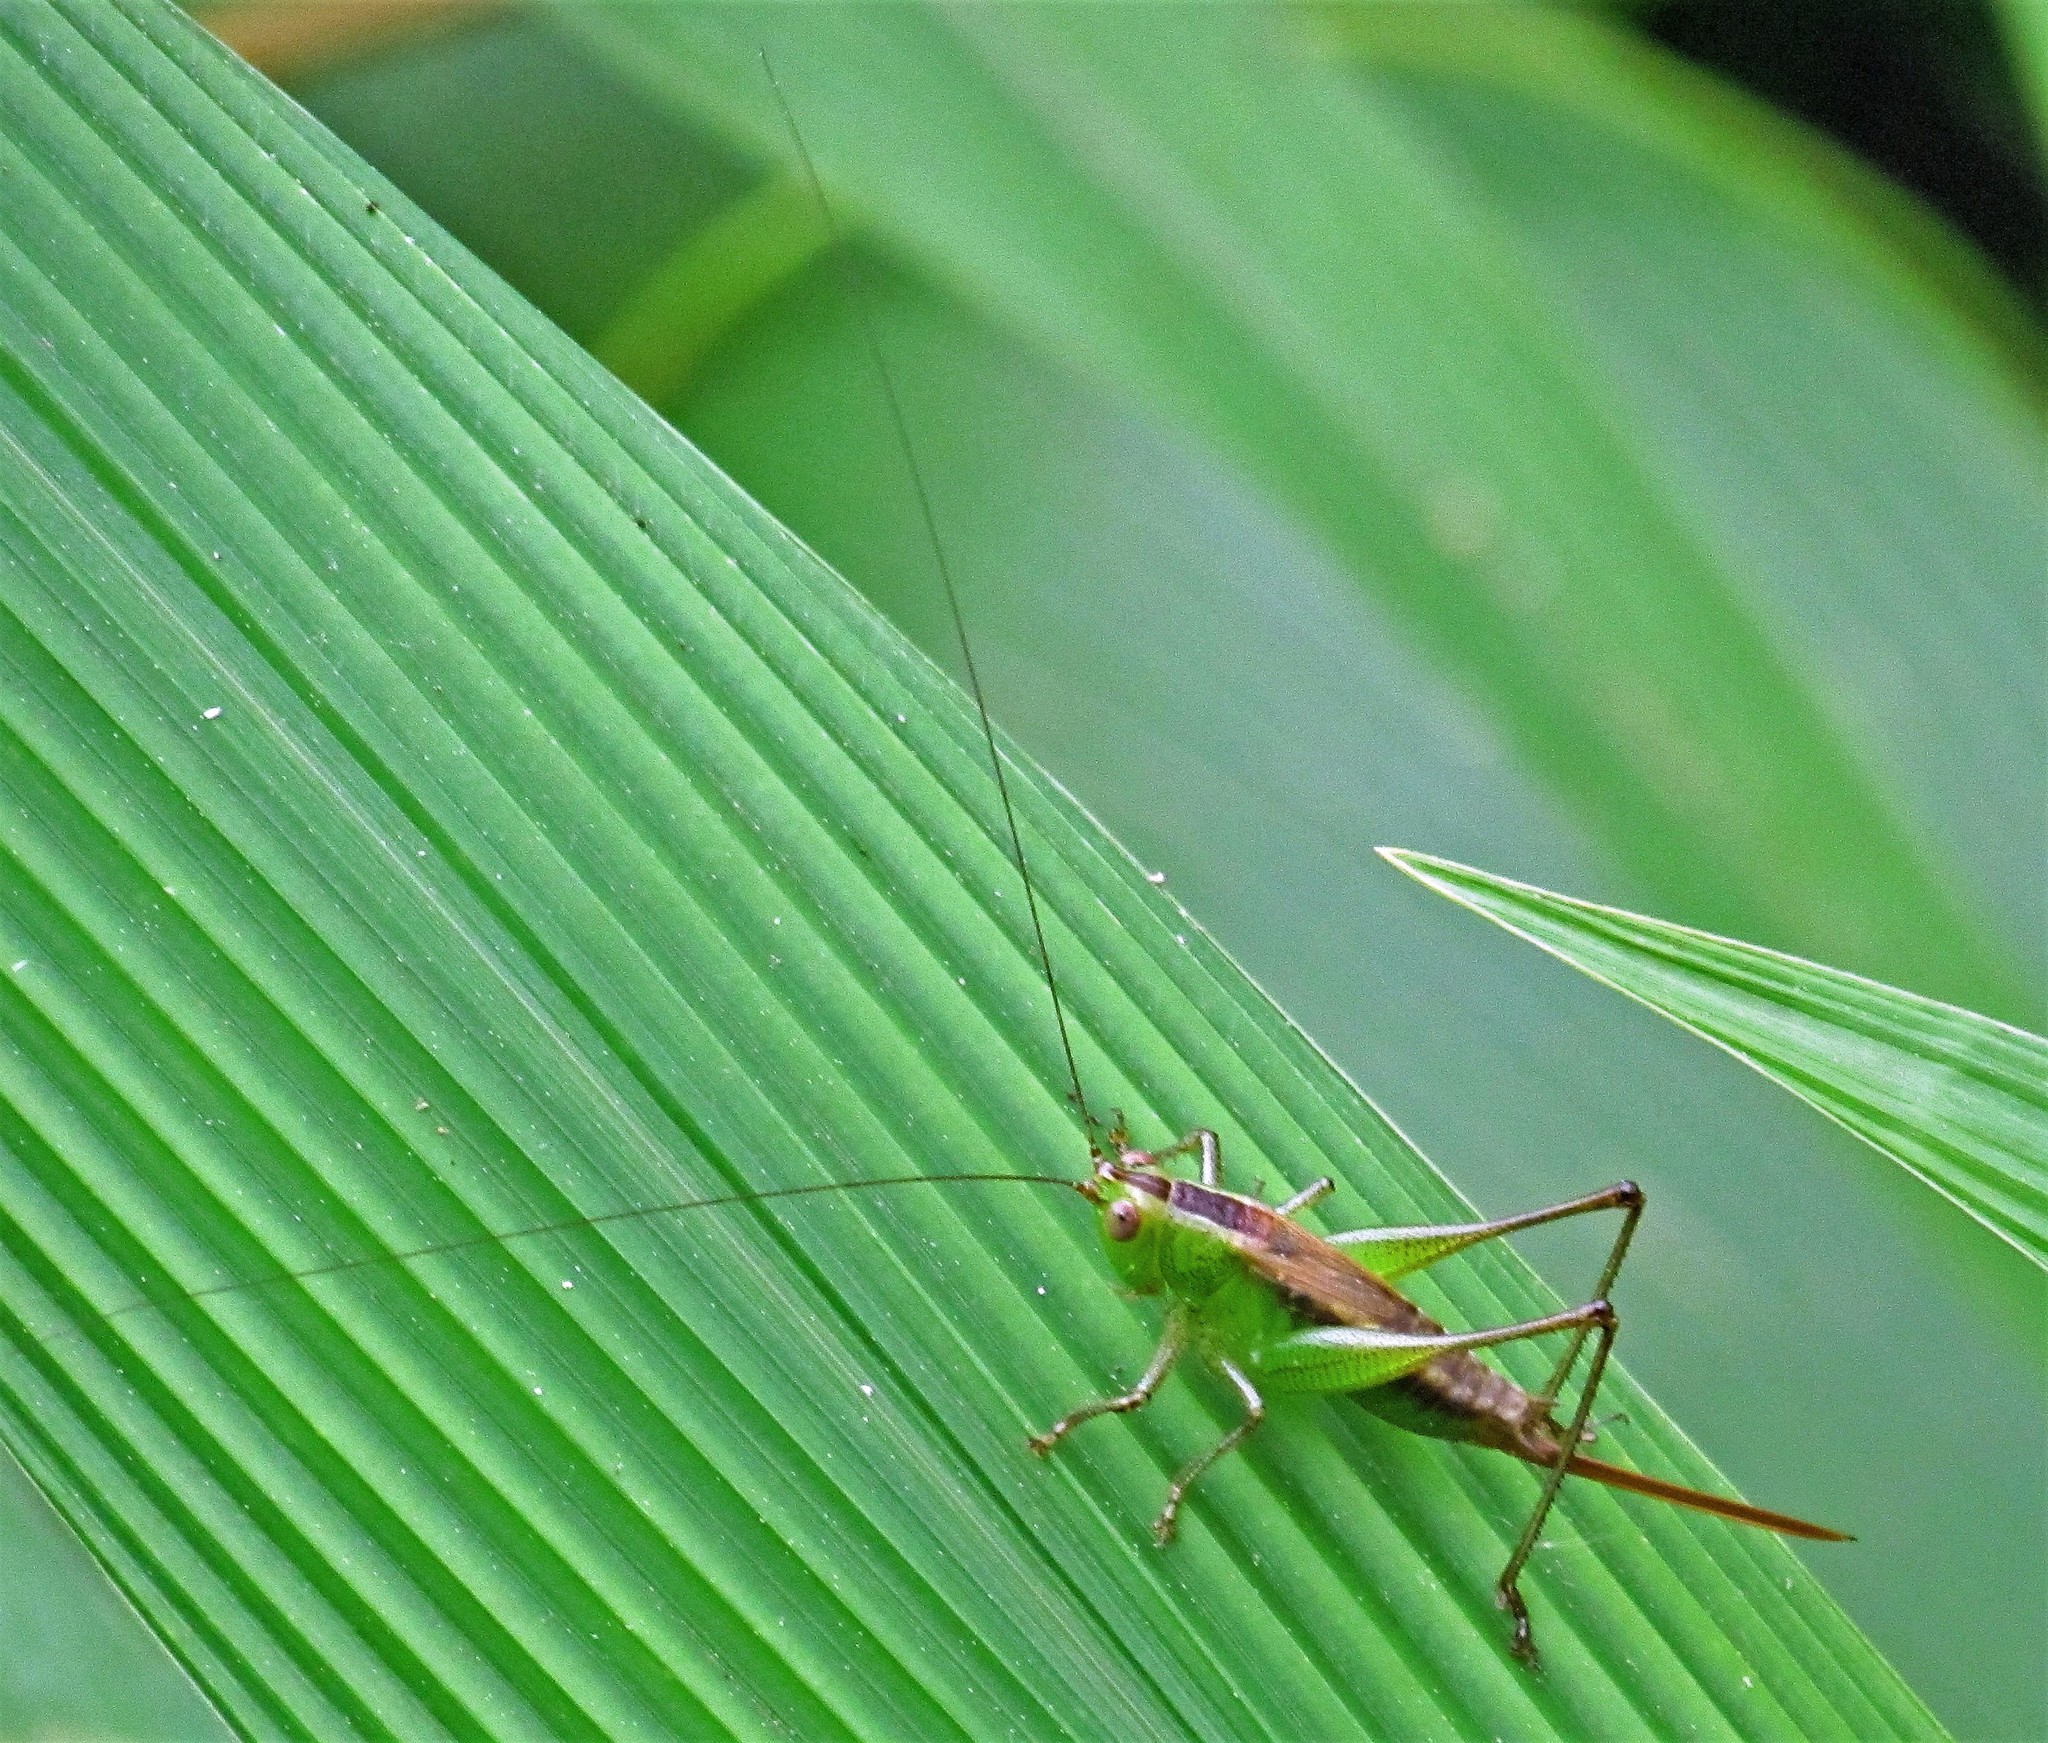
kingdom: Animalia
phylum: Arthropoda
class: Insecta
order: Orthoptera
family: Tettigoniidae
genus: Conocephalus
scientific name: Conocephalus saltator
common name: Katydid
